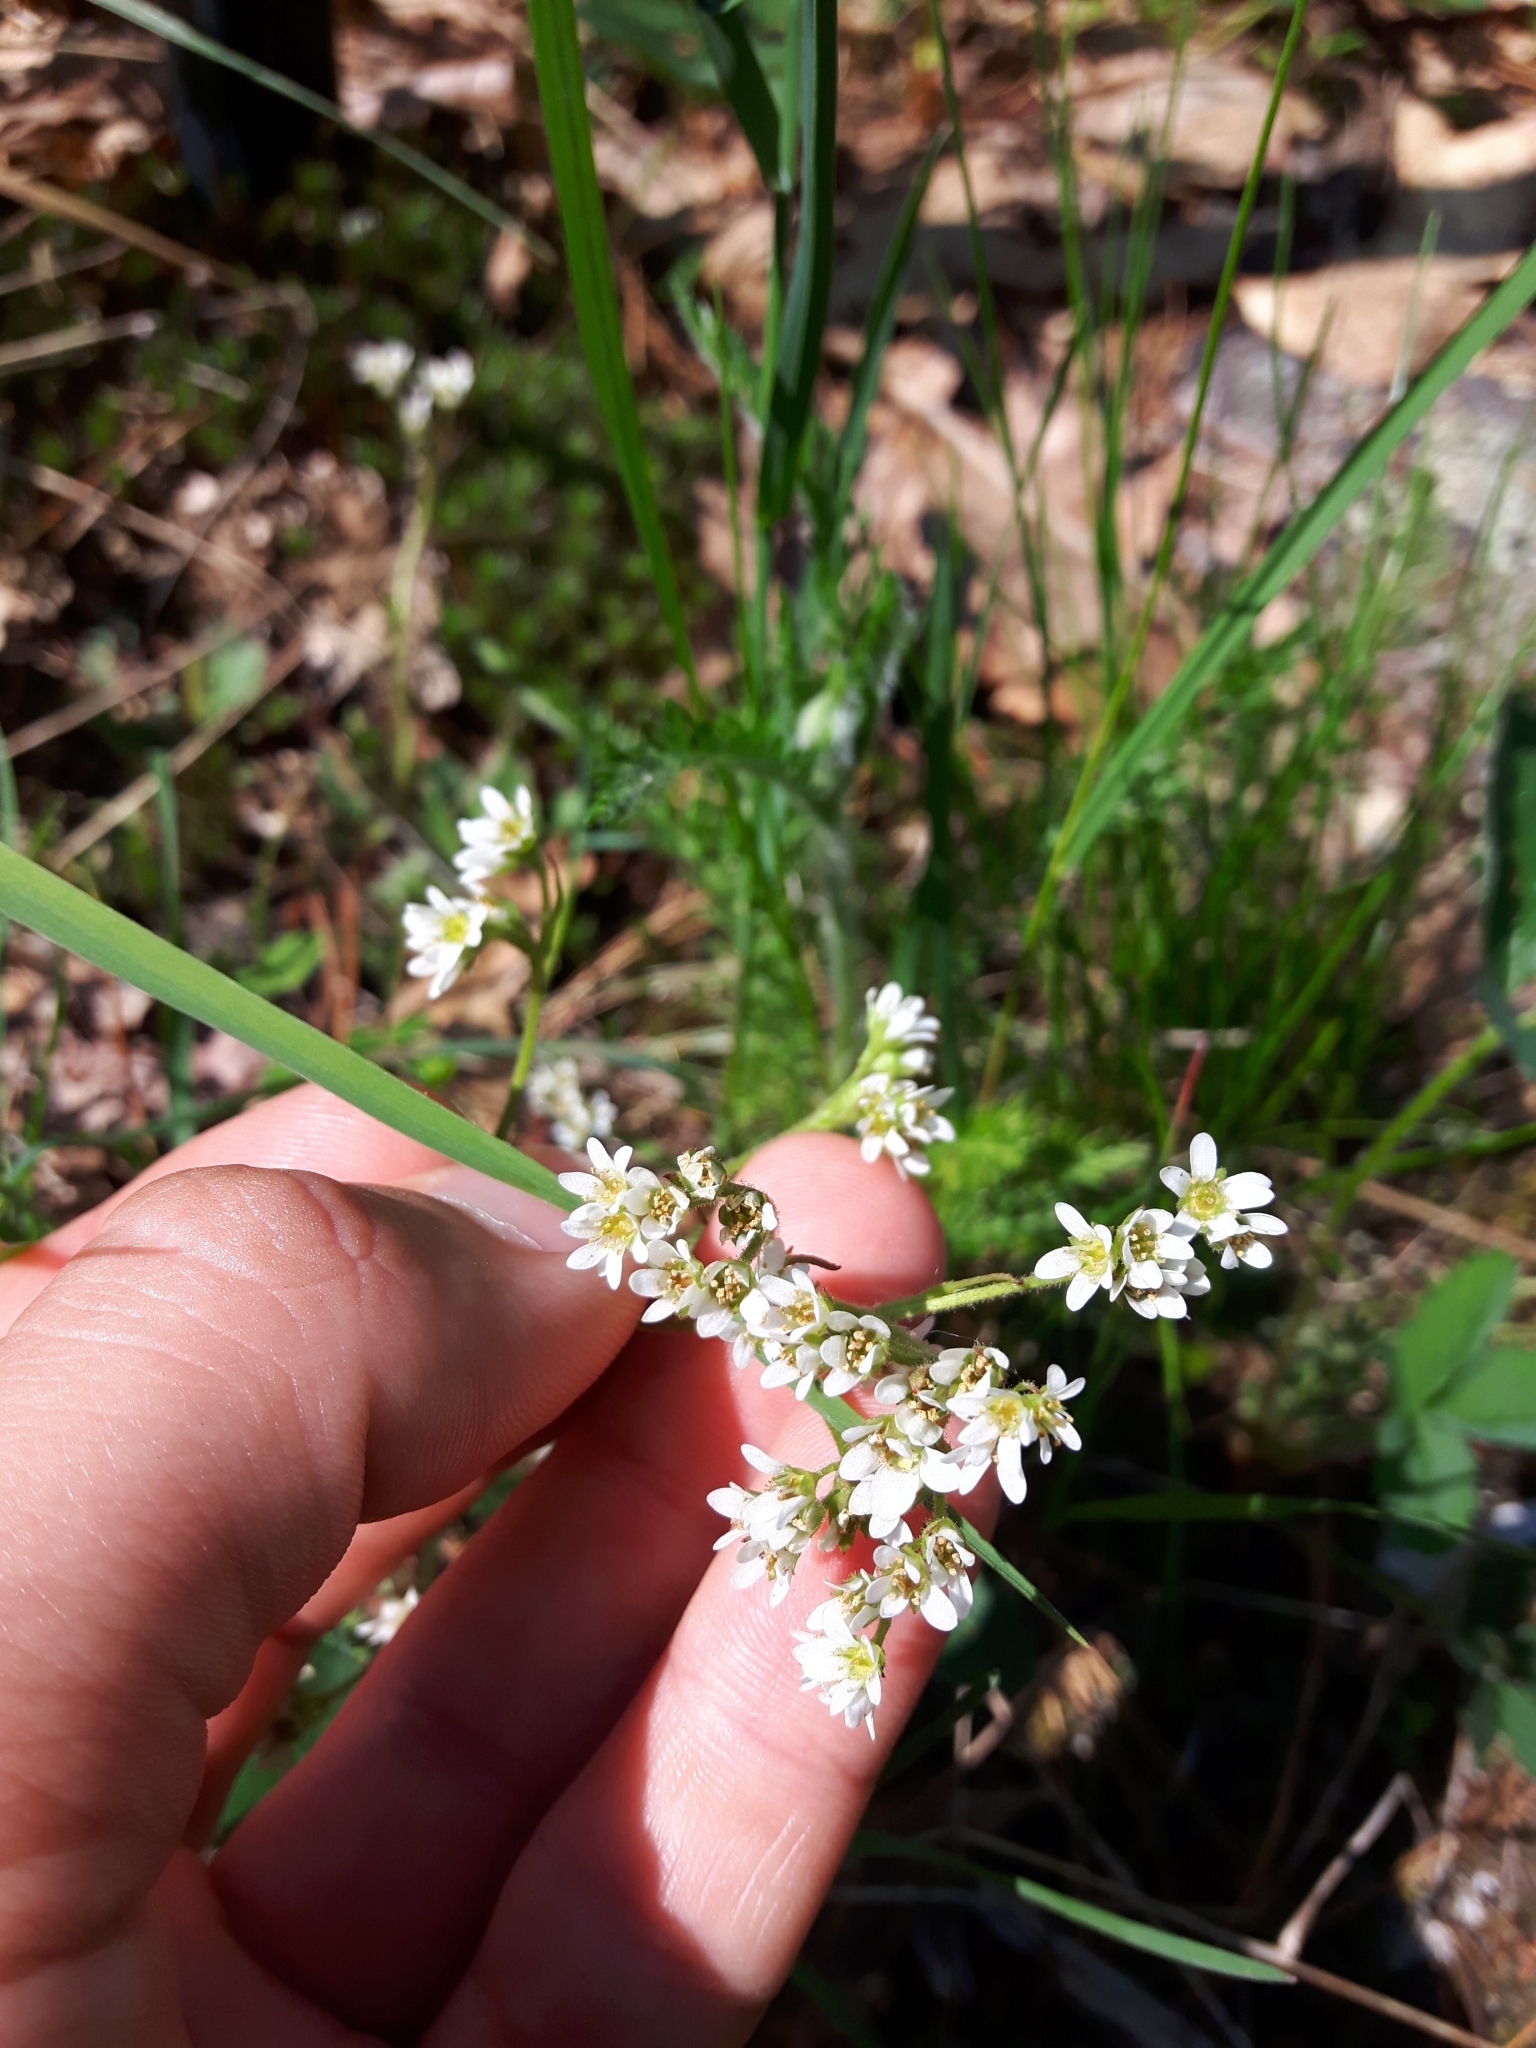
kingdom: Plantae
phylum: Tracheophyta
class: Magnoliopsida
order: Saxifragales
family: Saxifragaceae
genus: Micranthes
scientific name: Micranthes virginiensis
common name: Early saxifrage
